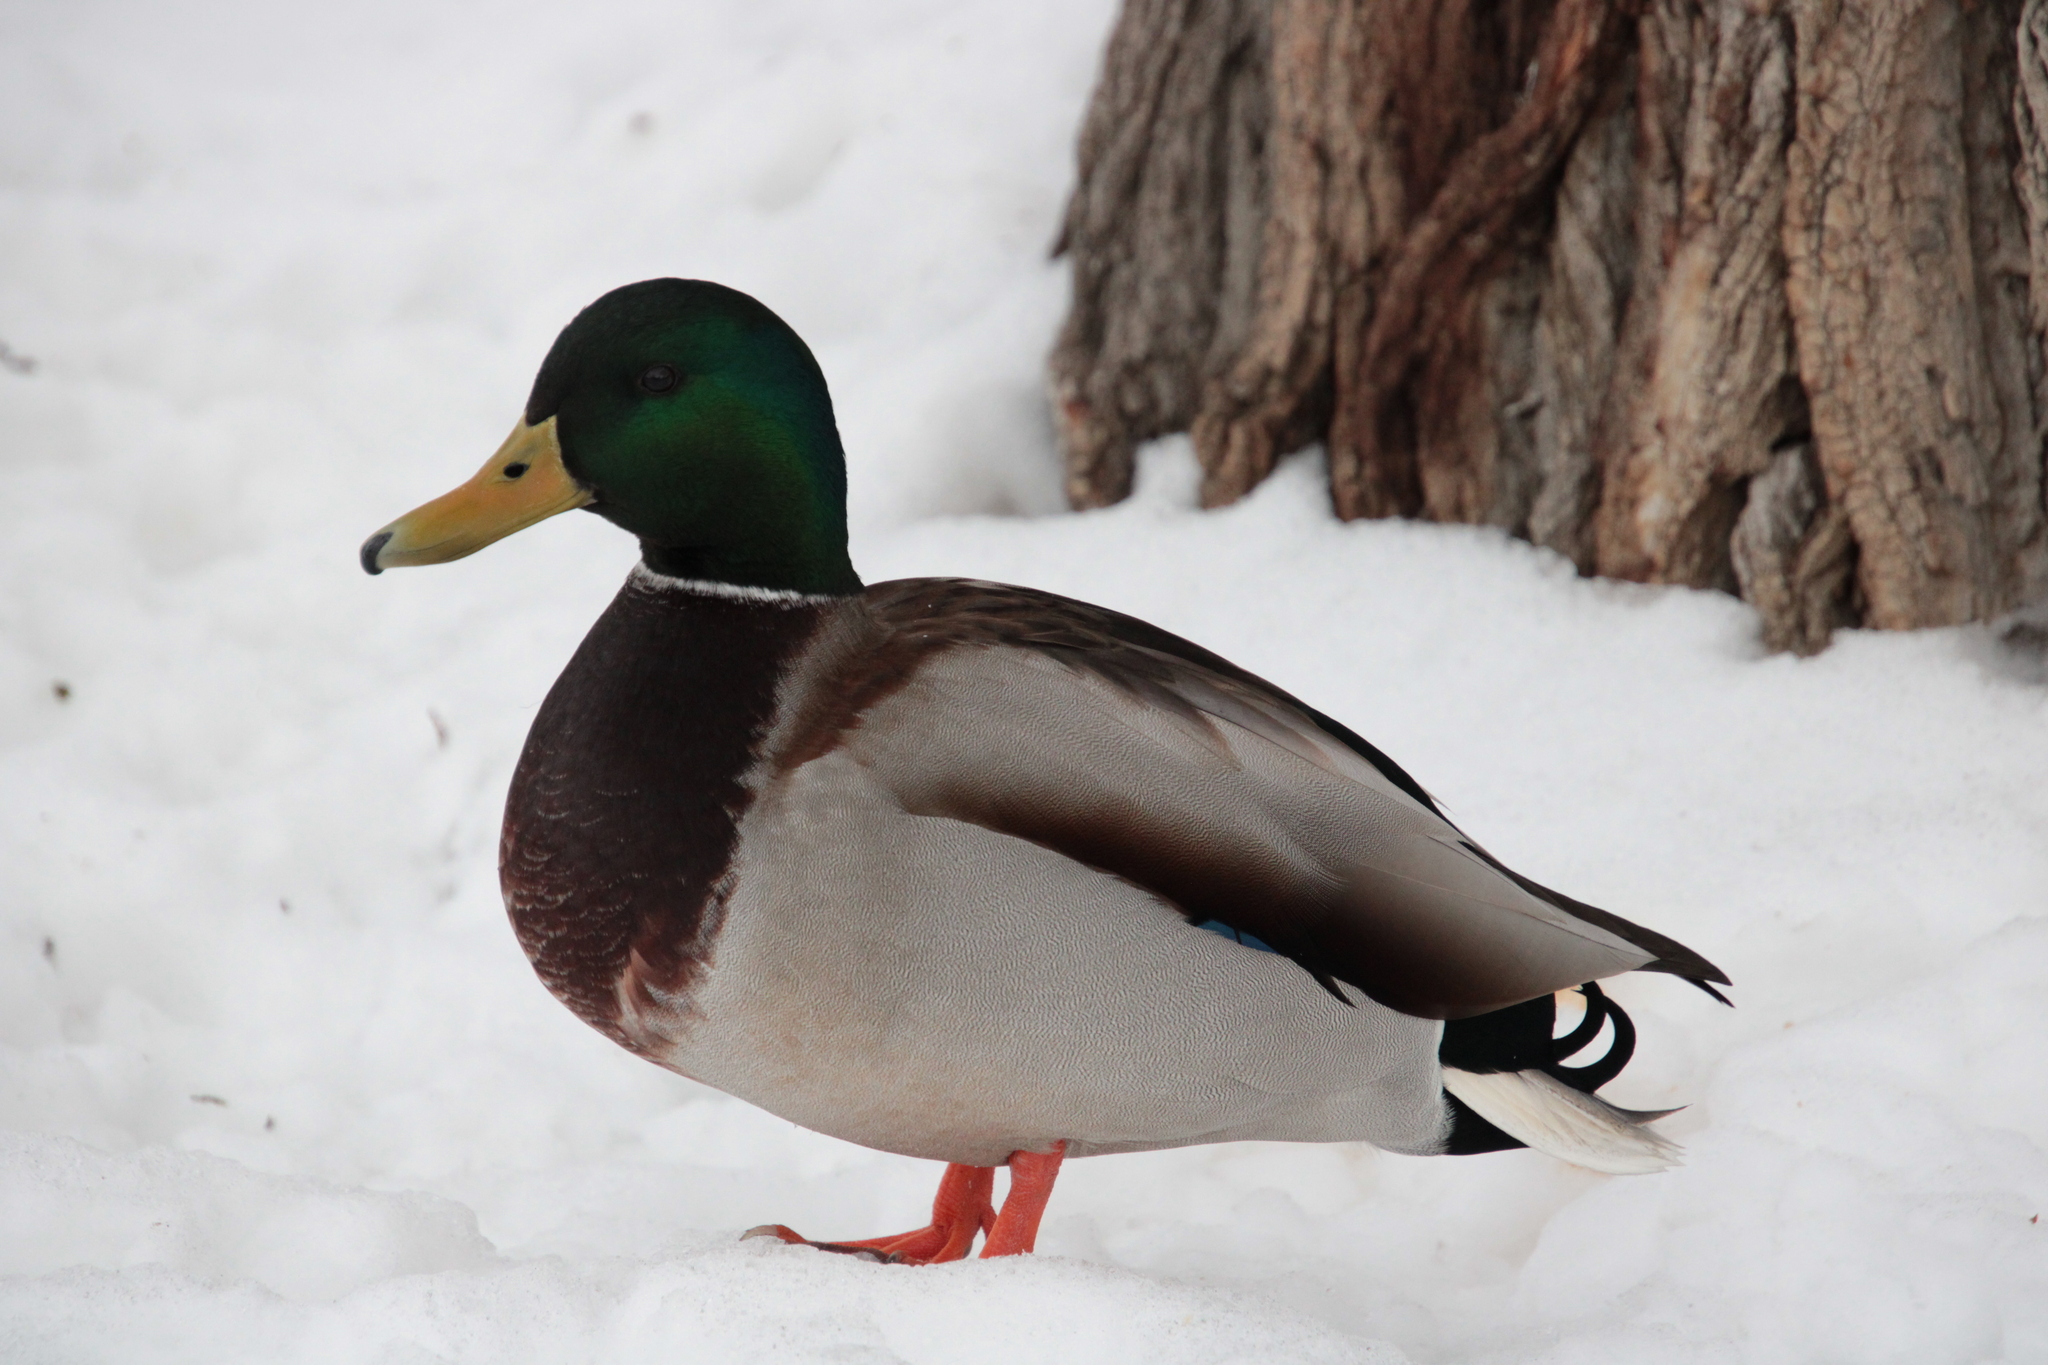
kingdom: Animalia
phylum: Chordata
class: Aves
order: Anseriformes
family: Anatidae
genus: Anas
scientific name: Anas platyrhynchos
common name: Mallard
